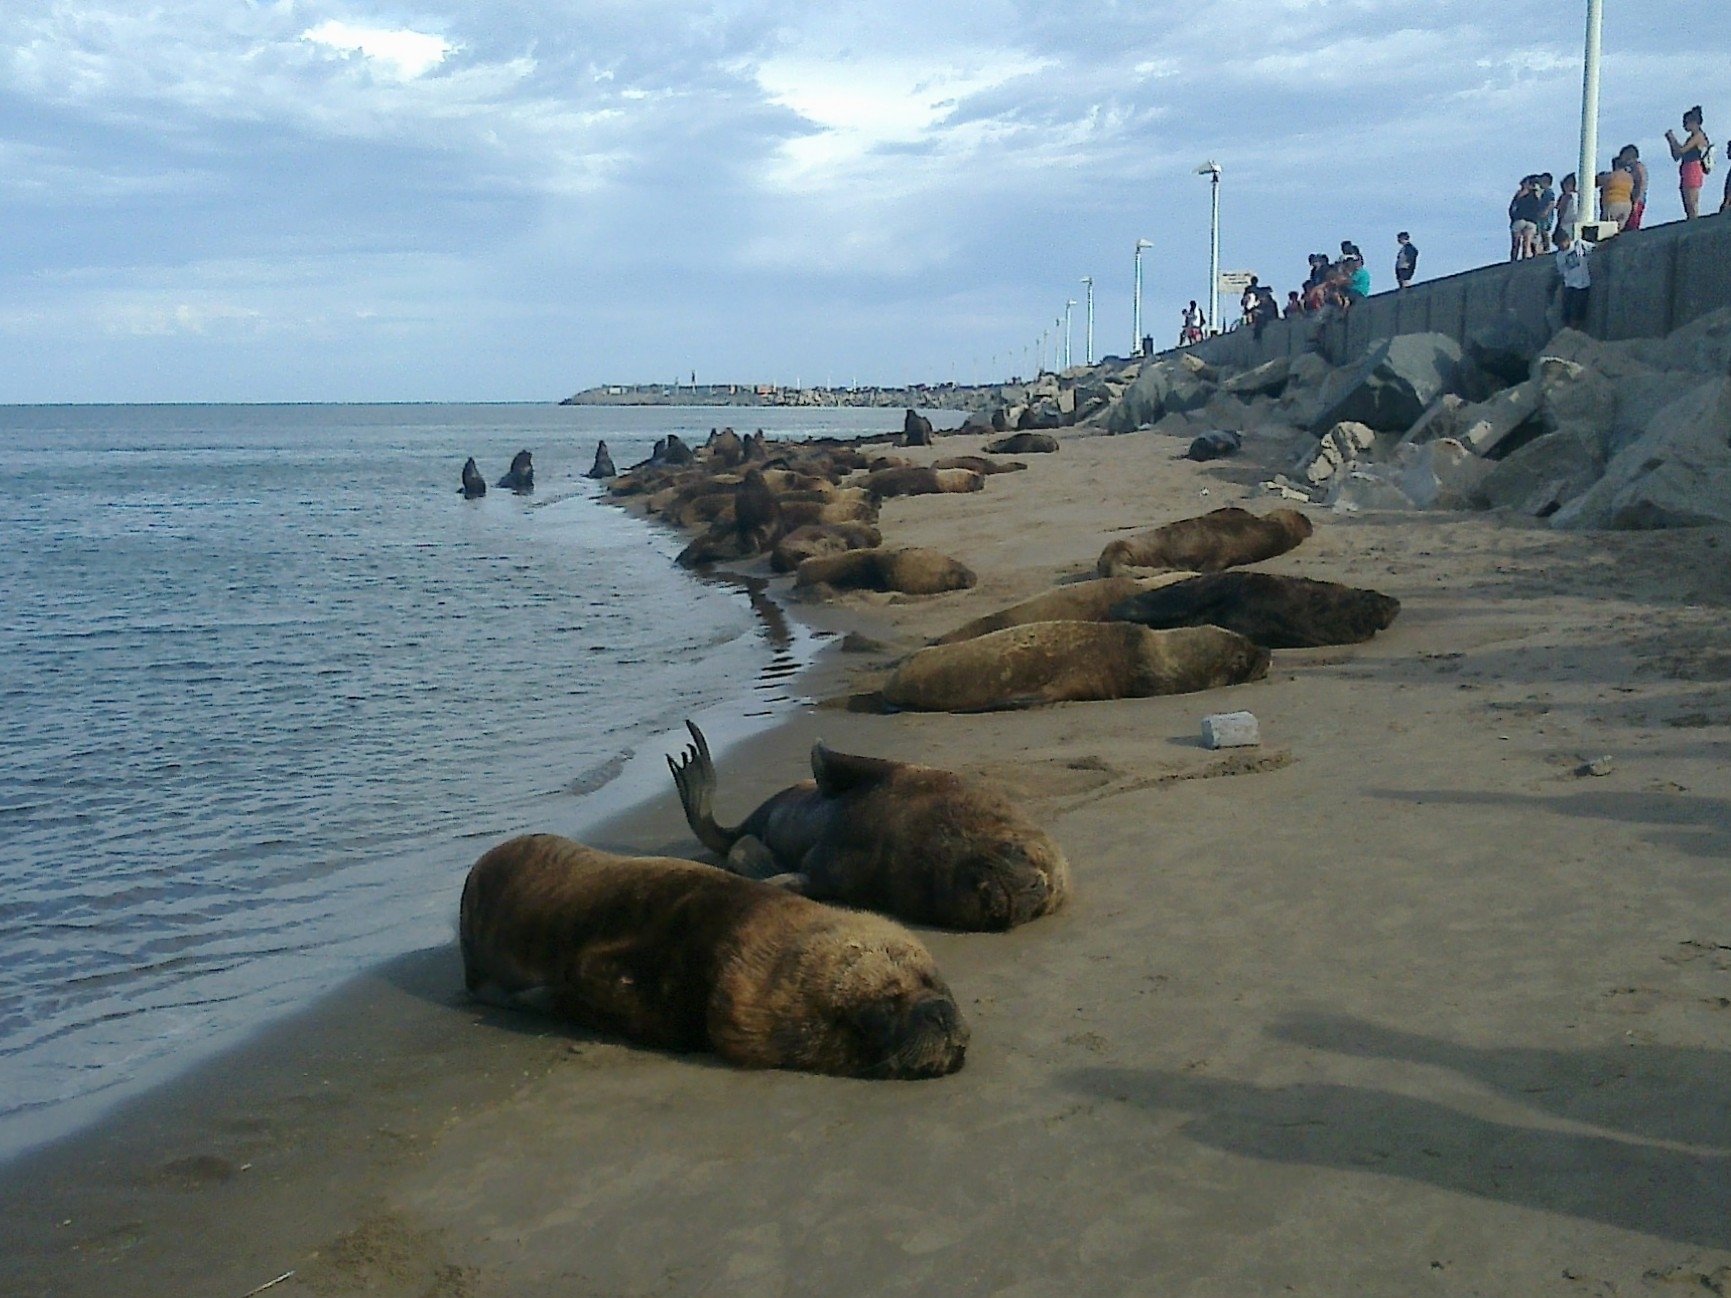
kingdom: Animalia
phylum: Chordata
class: Mammalia
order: Carnivora
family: Otariidae
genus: Otaria
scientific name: Otaria byronia
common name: South american sea lion
